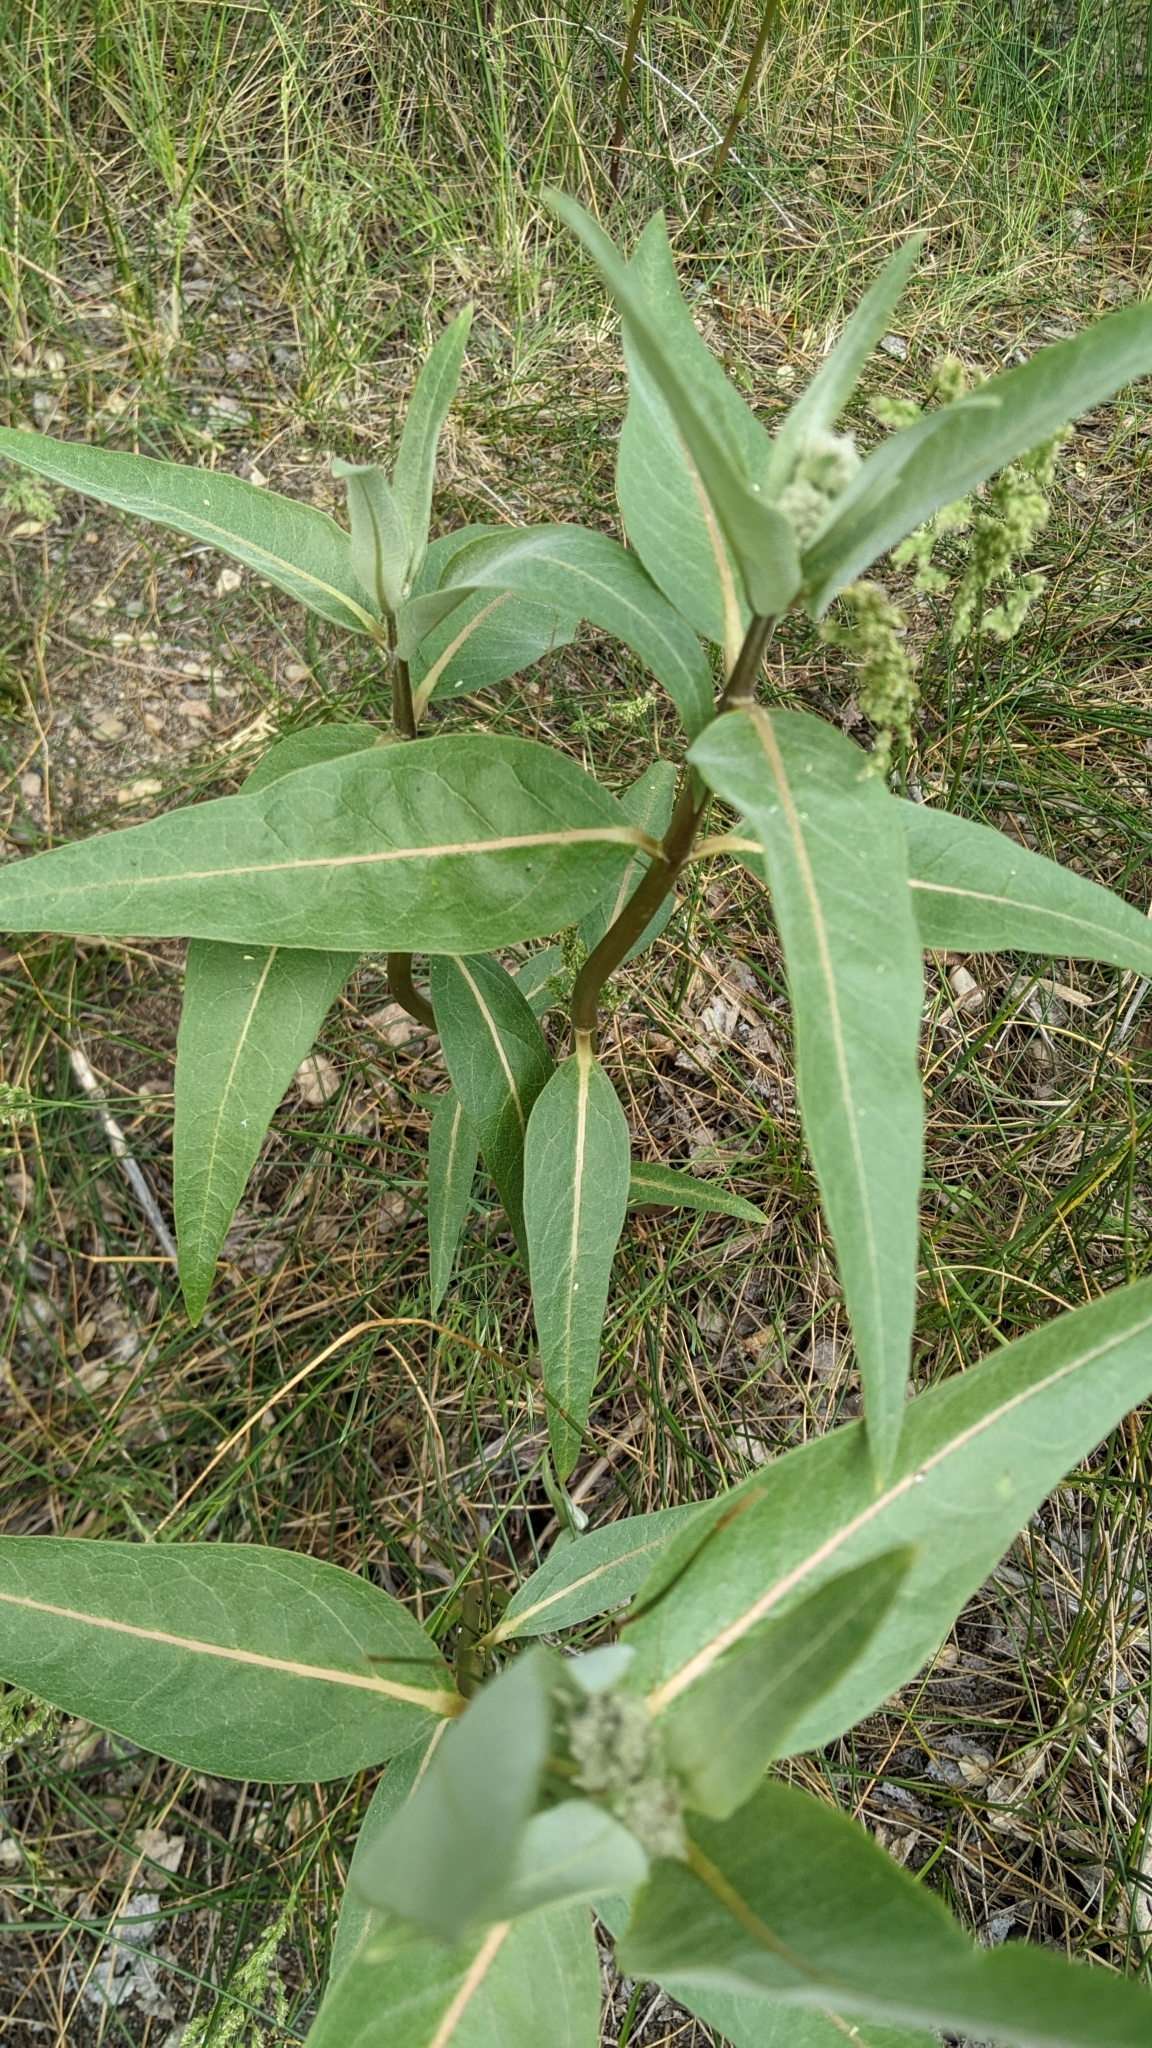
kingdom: Plantae
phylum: Tracheophyta
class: Magnoliopsida
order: Gentianales
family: Apocynaceae
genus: Asclepias
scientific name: Asclepias speciosa
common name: Showy milkweed
